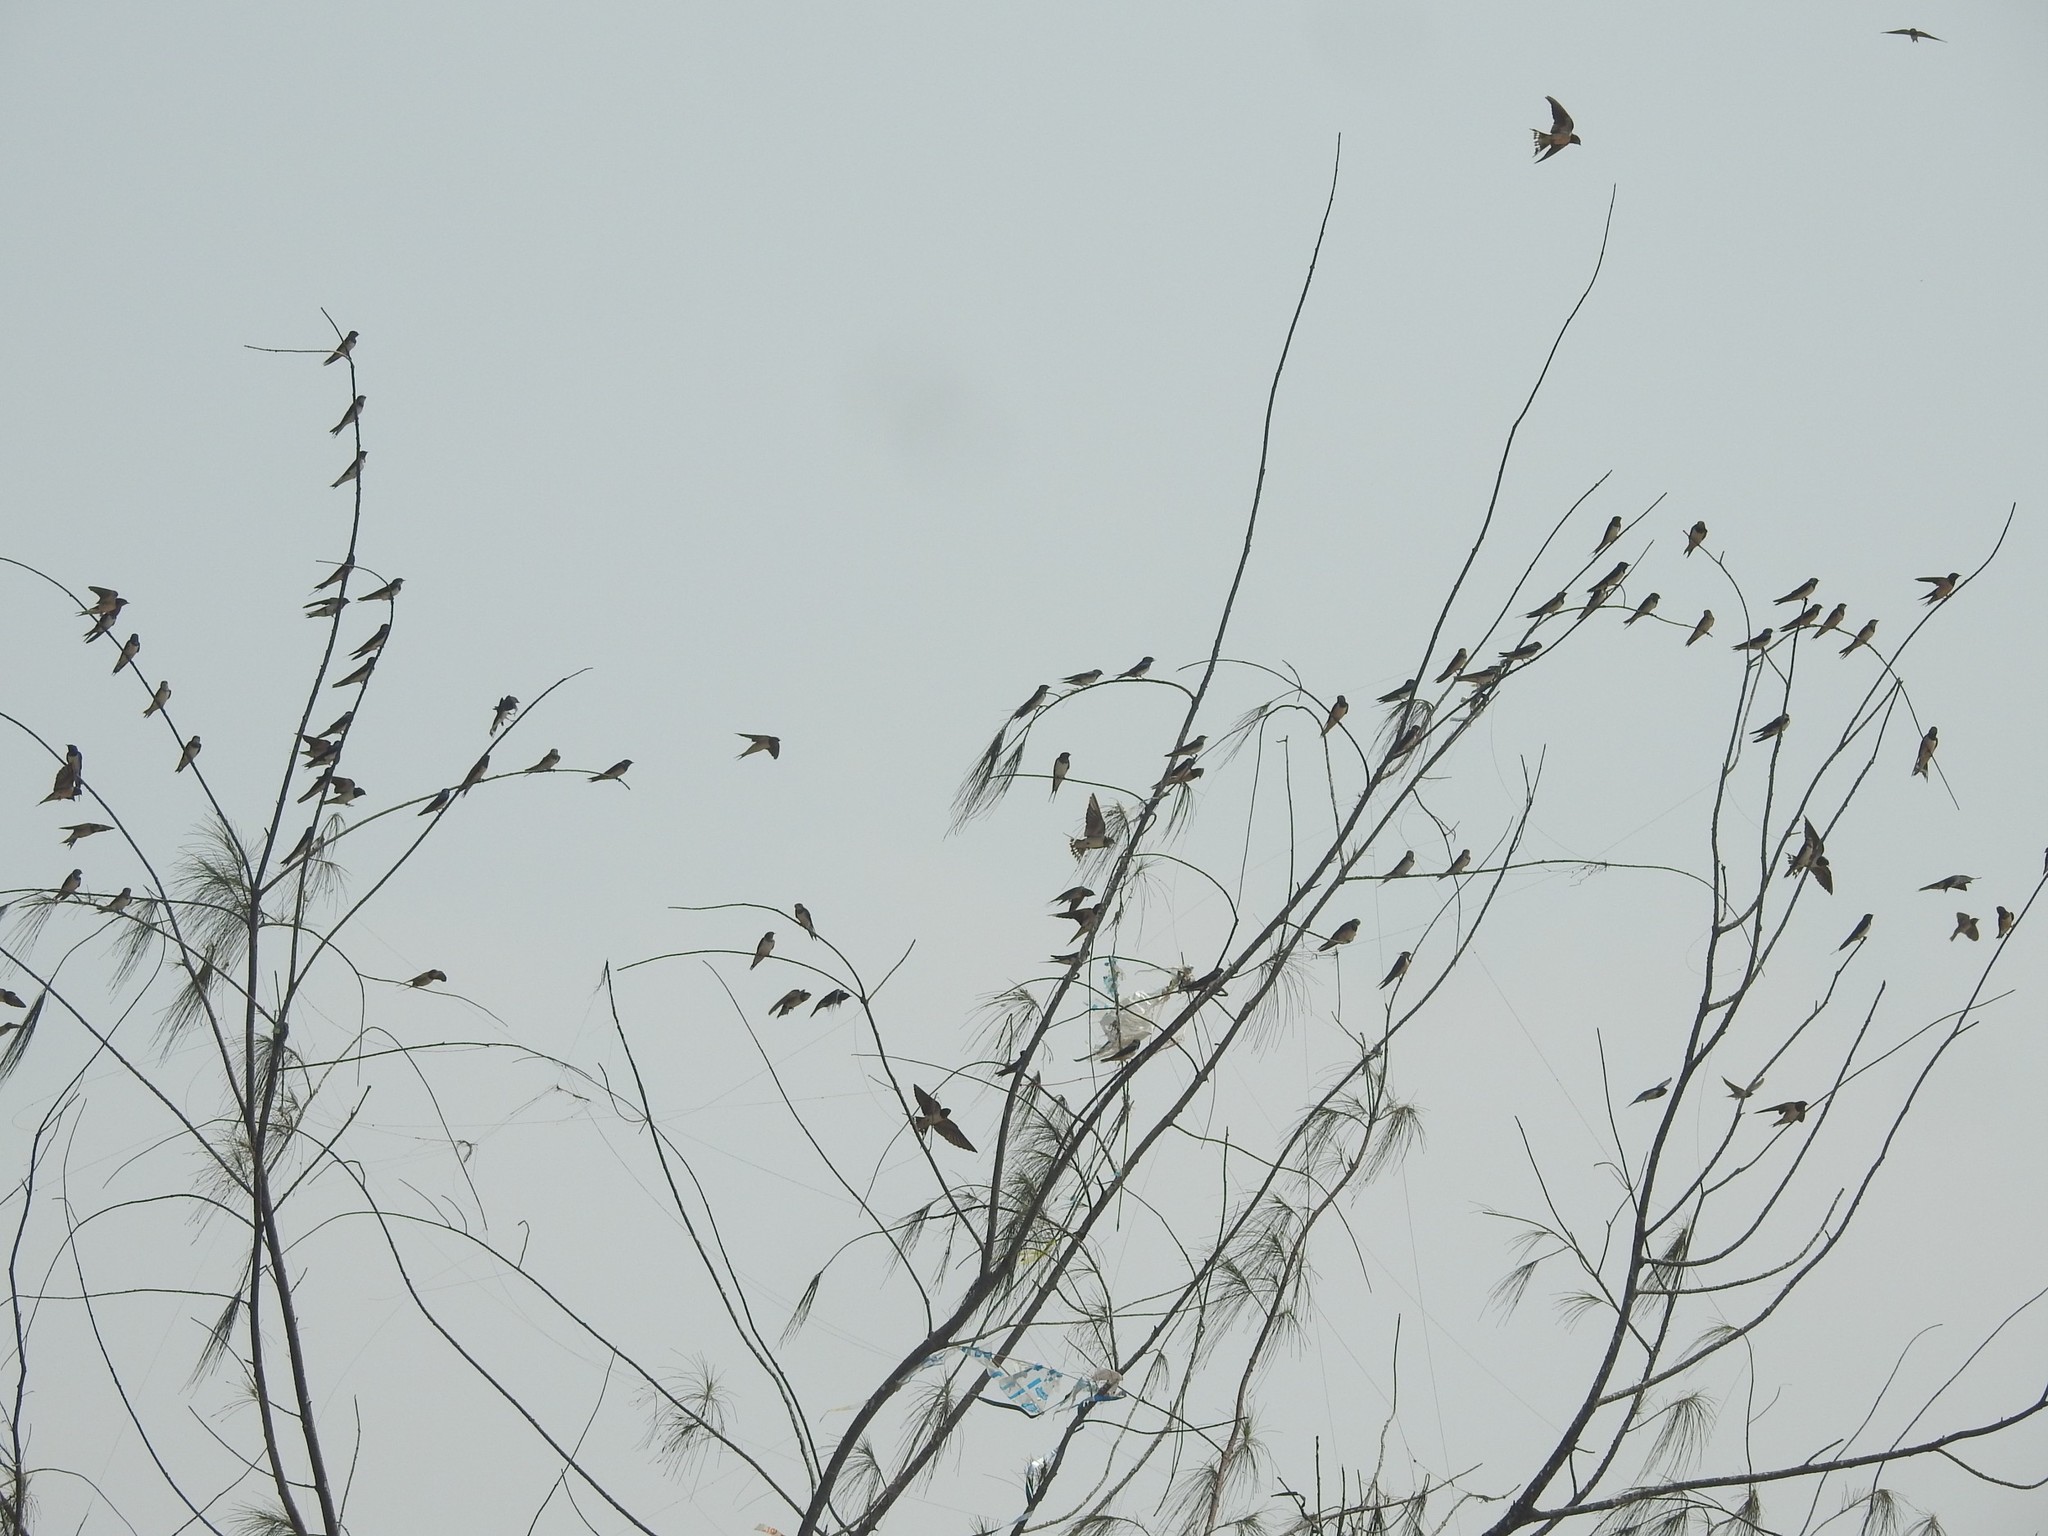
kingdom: Animalia
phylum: Chordata
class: Aves
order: Passeriformes
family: Hirundinidae
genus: Hirundo
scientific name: Hirundo rustica
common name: Barn swallow
